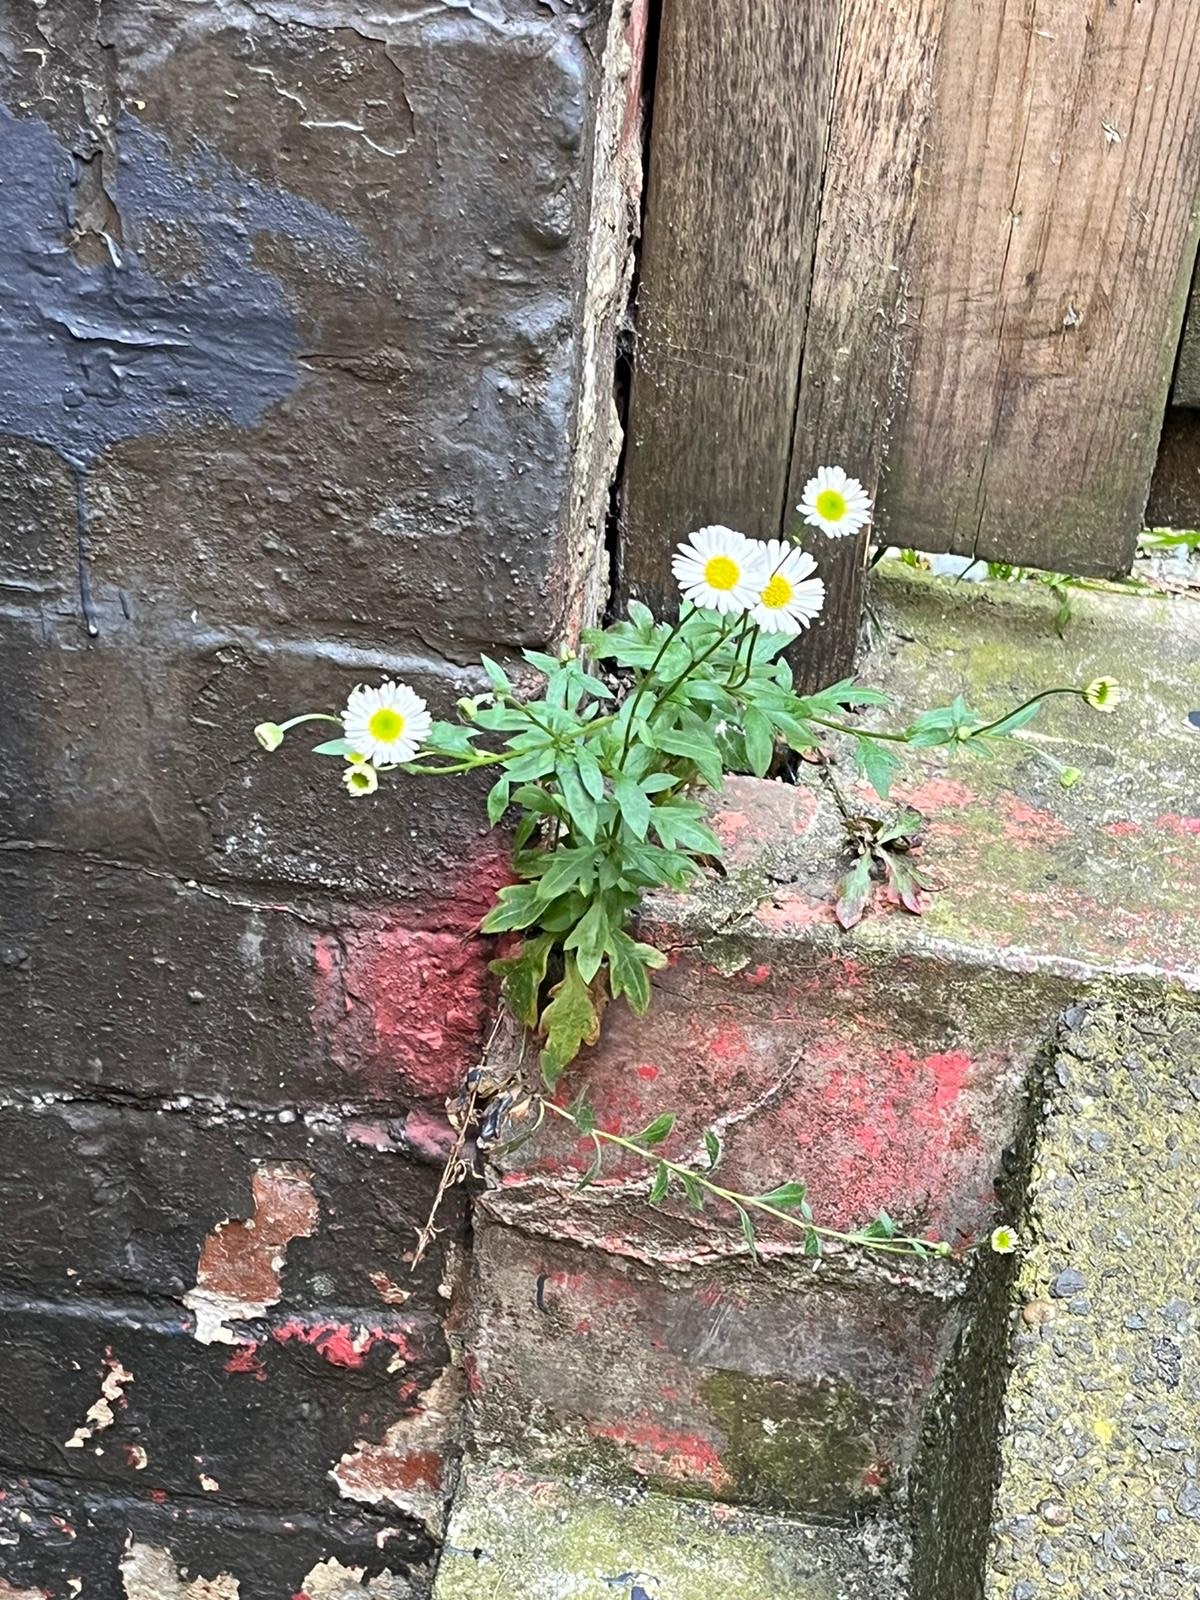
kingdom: Plantae
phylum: Tracheophyta
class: Magnoliopsida
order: Asterales
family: Asteraceae
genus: Erigeron
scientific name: Erigeron karvinskianus
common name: Mexican fleabane
